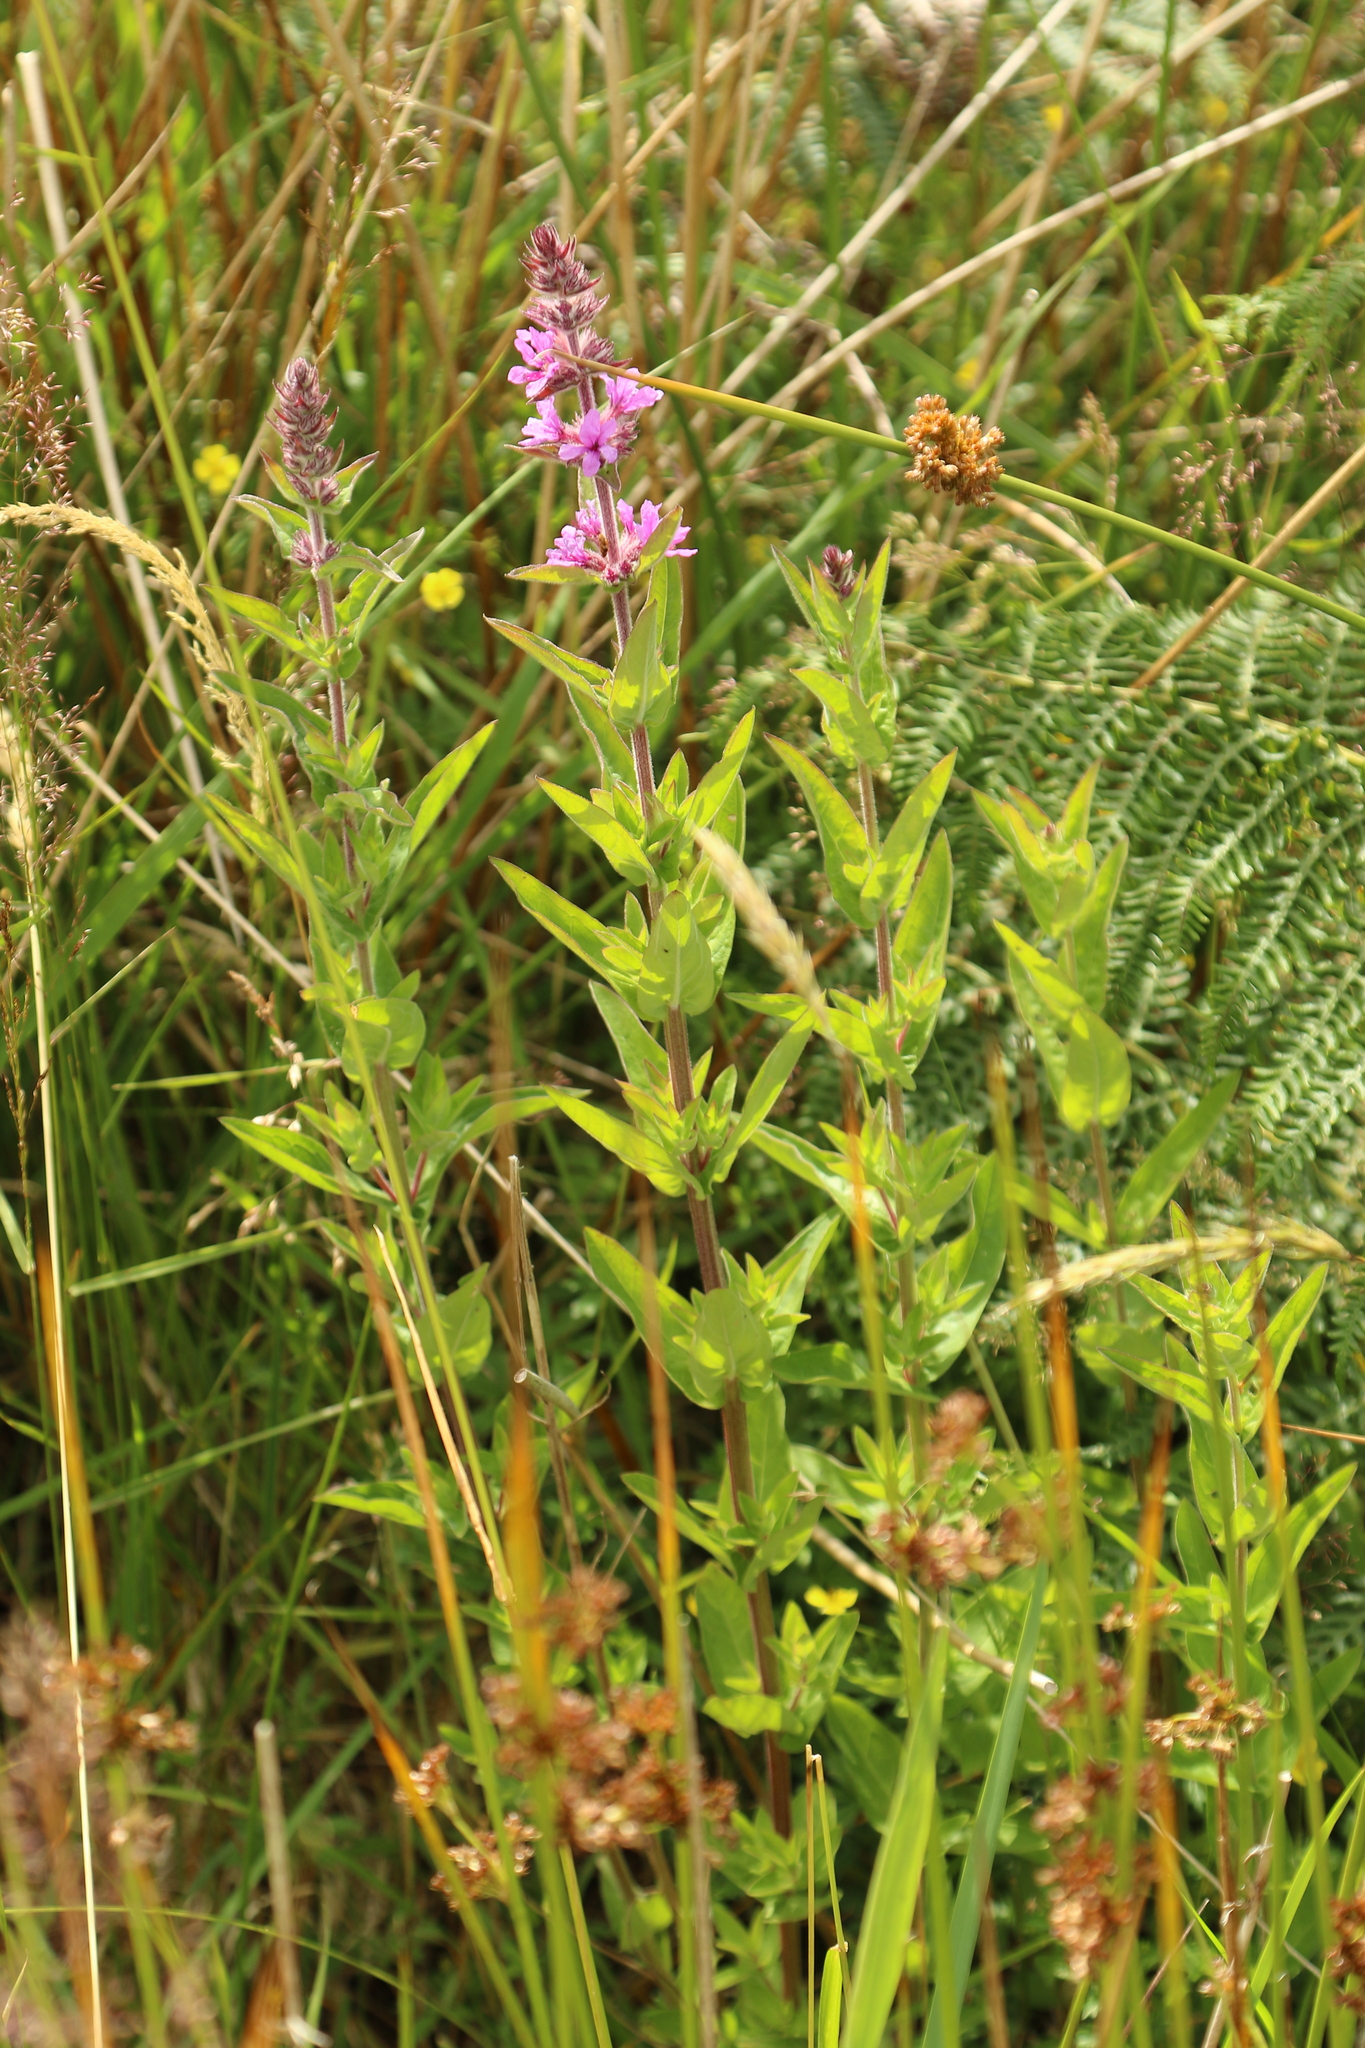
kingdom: Plantae
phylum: Tracheophyta
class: Magnoliopsida
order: Myrtales
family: Lythraceae
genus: Lythrum
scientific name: Lythrum salicaria
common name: Purple loosestrife
